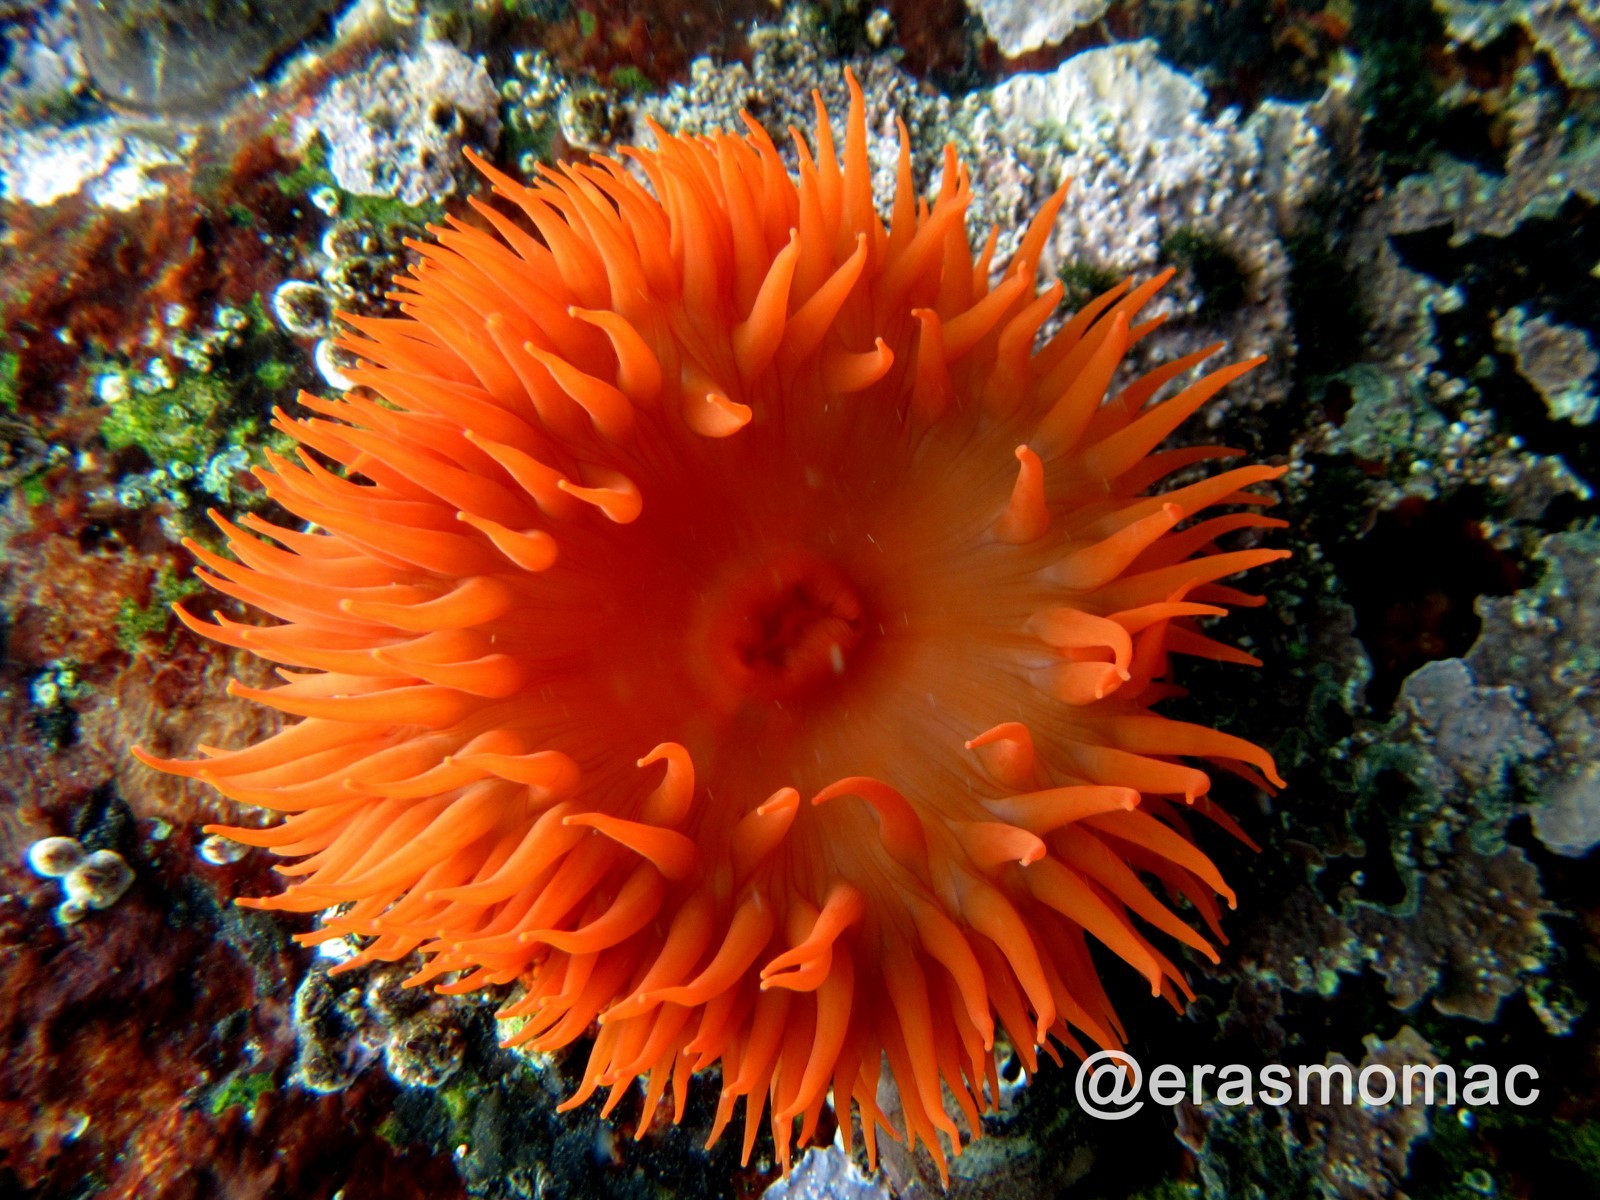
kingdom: Animalia
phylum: Cnidaria
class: Anthozoa
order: Actiniaria
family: Actiniidae
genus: Phymanthea
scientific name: Phymanthea pluvia
